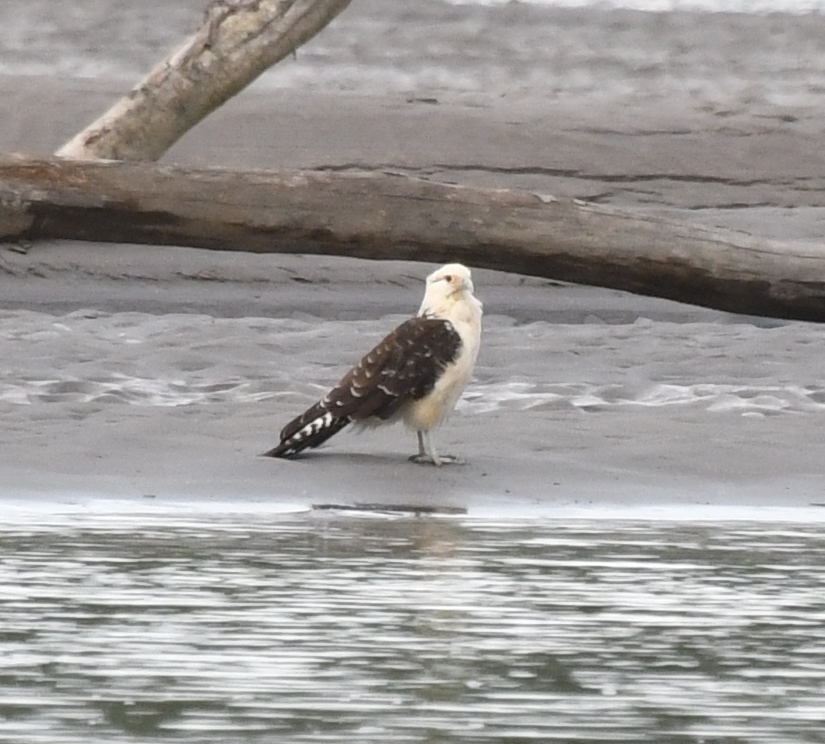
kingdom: Animalia
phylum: Chordata
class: Aves
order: Falconiformes
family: Falconidae
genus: Daptrius
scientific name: Daptrius
